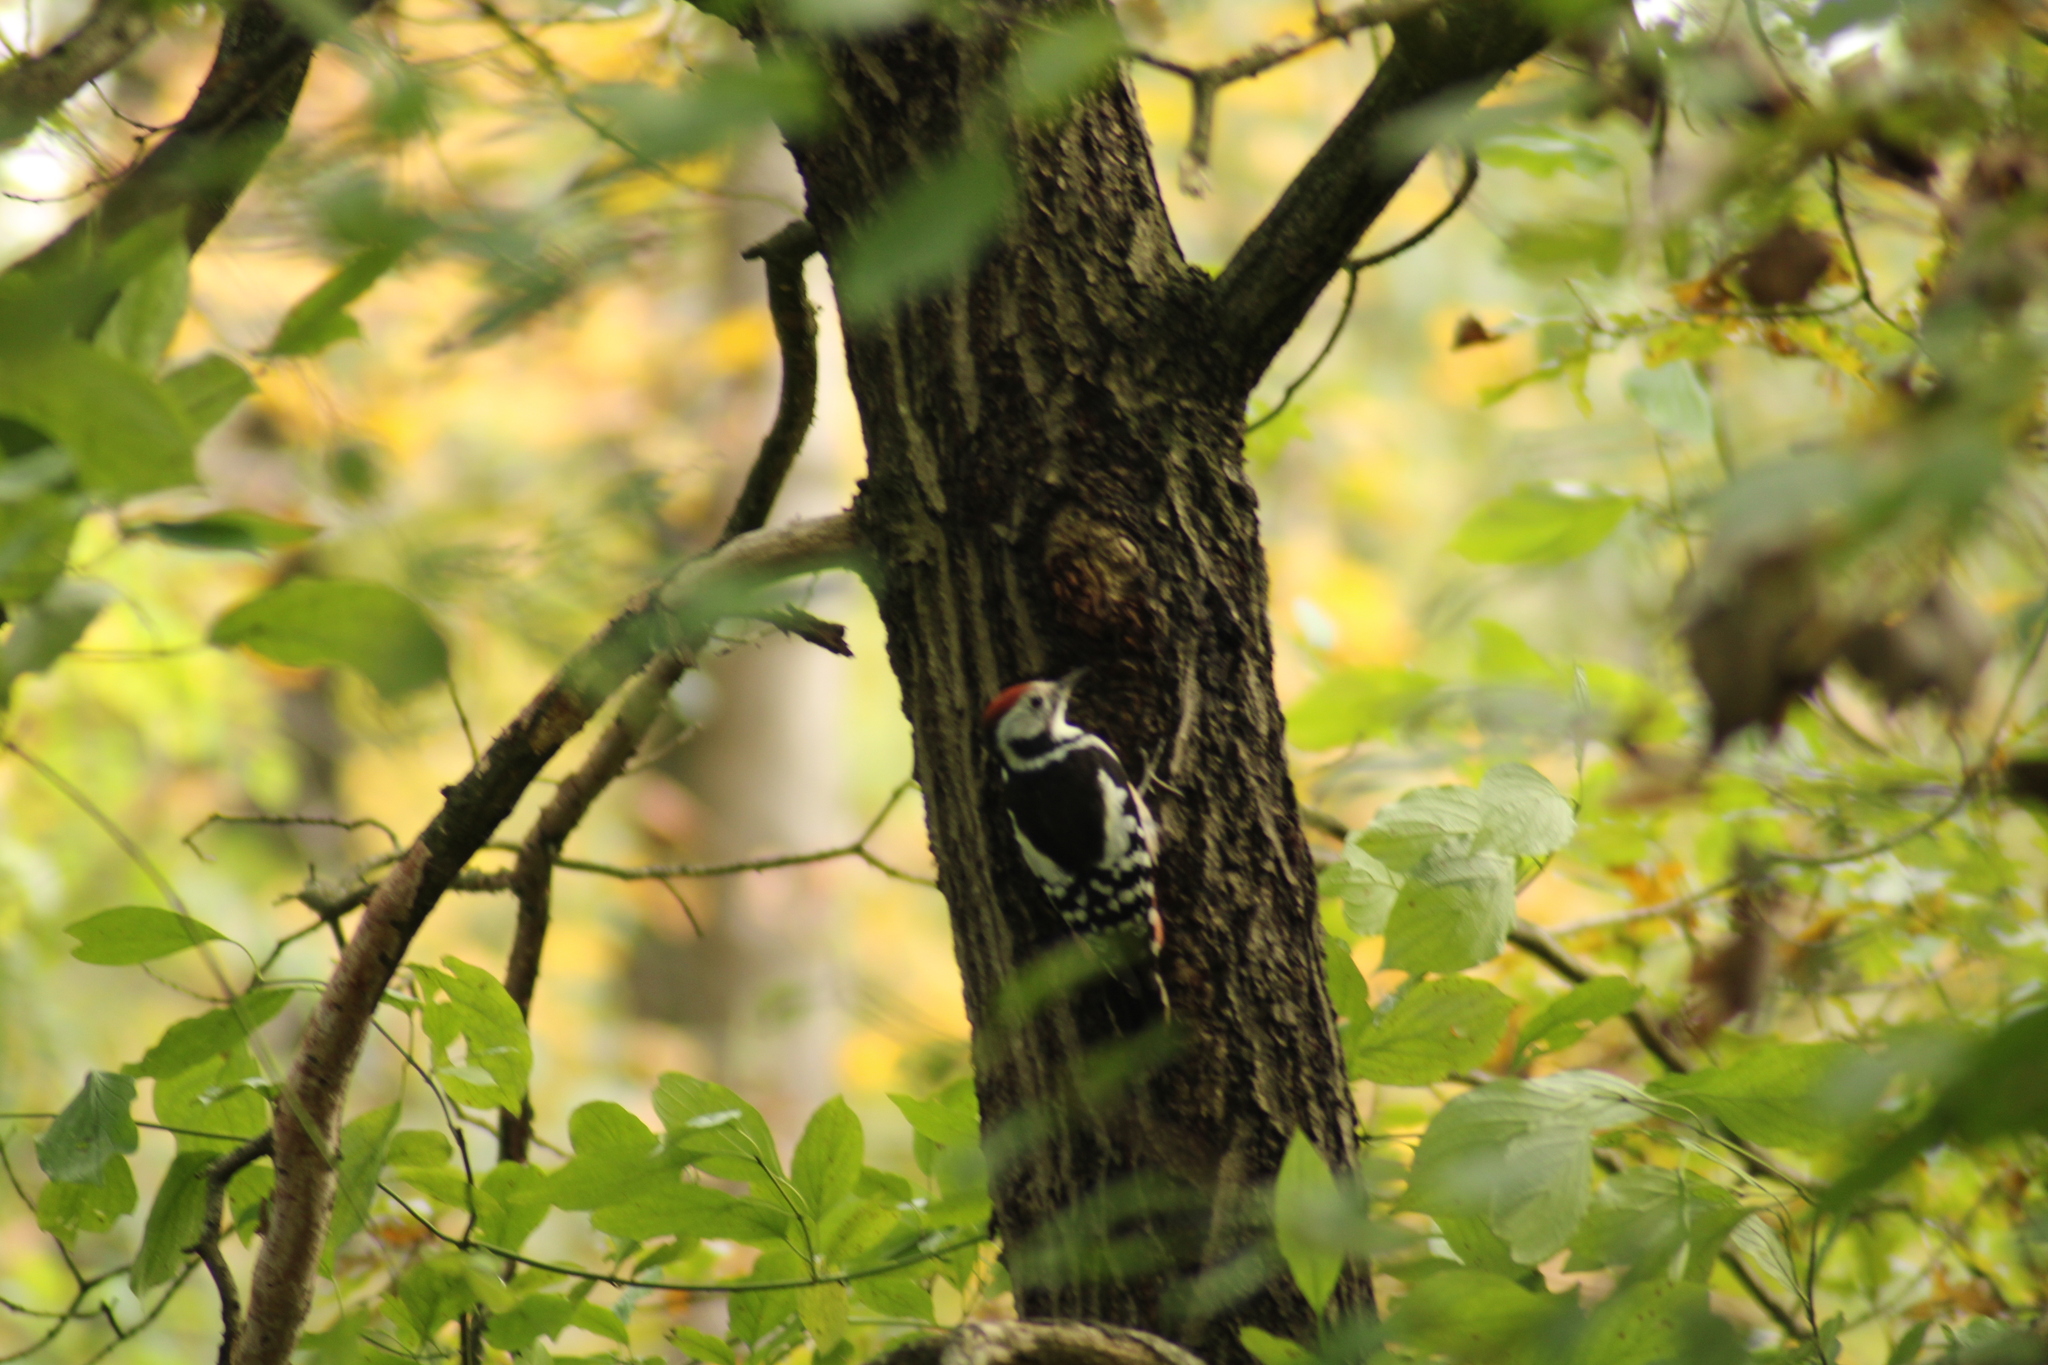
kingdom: Animalia
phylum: Chordata
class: Aves
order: Piciformes
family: Picidae
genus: Dendrocoptes
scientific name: Dendrocoptes medius
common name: Middle spotted woodpecker
